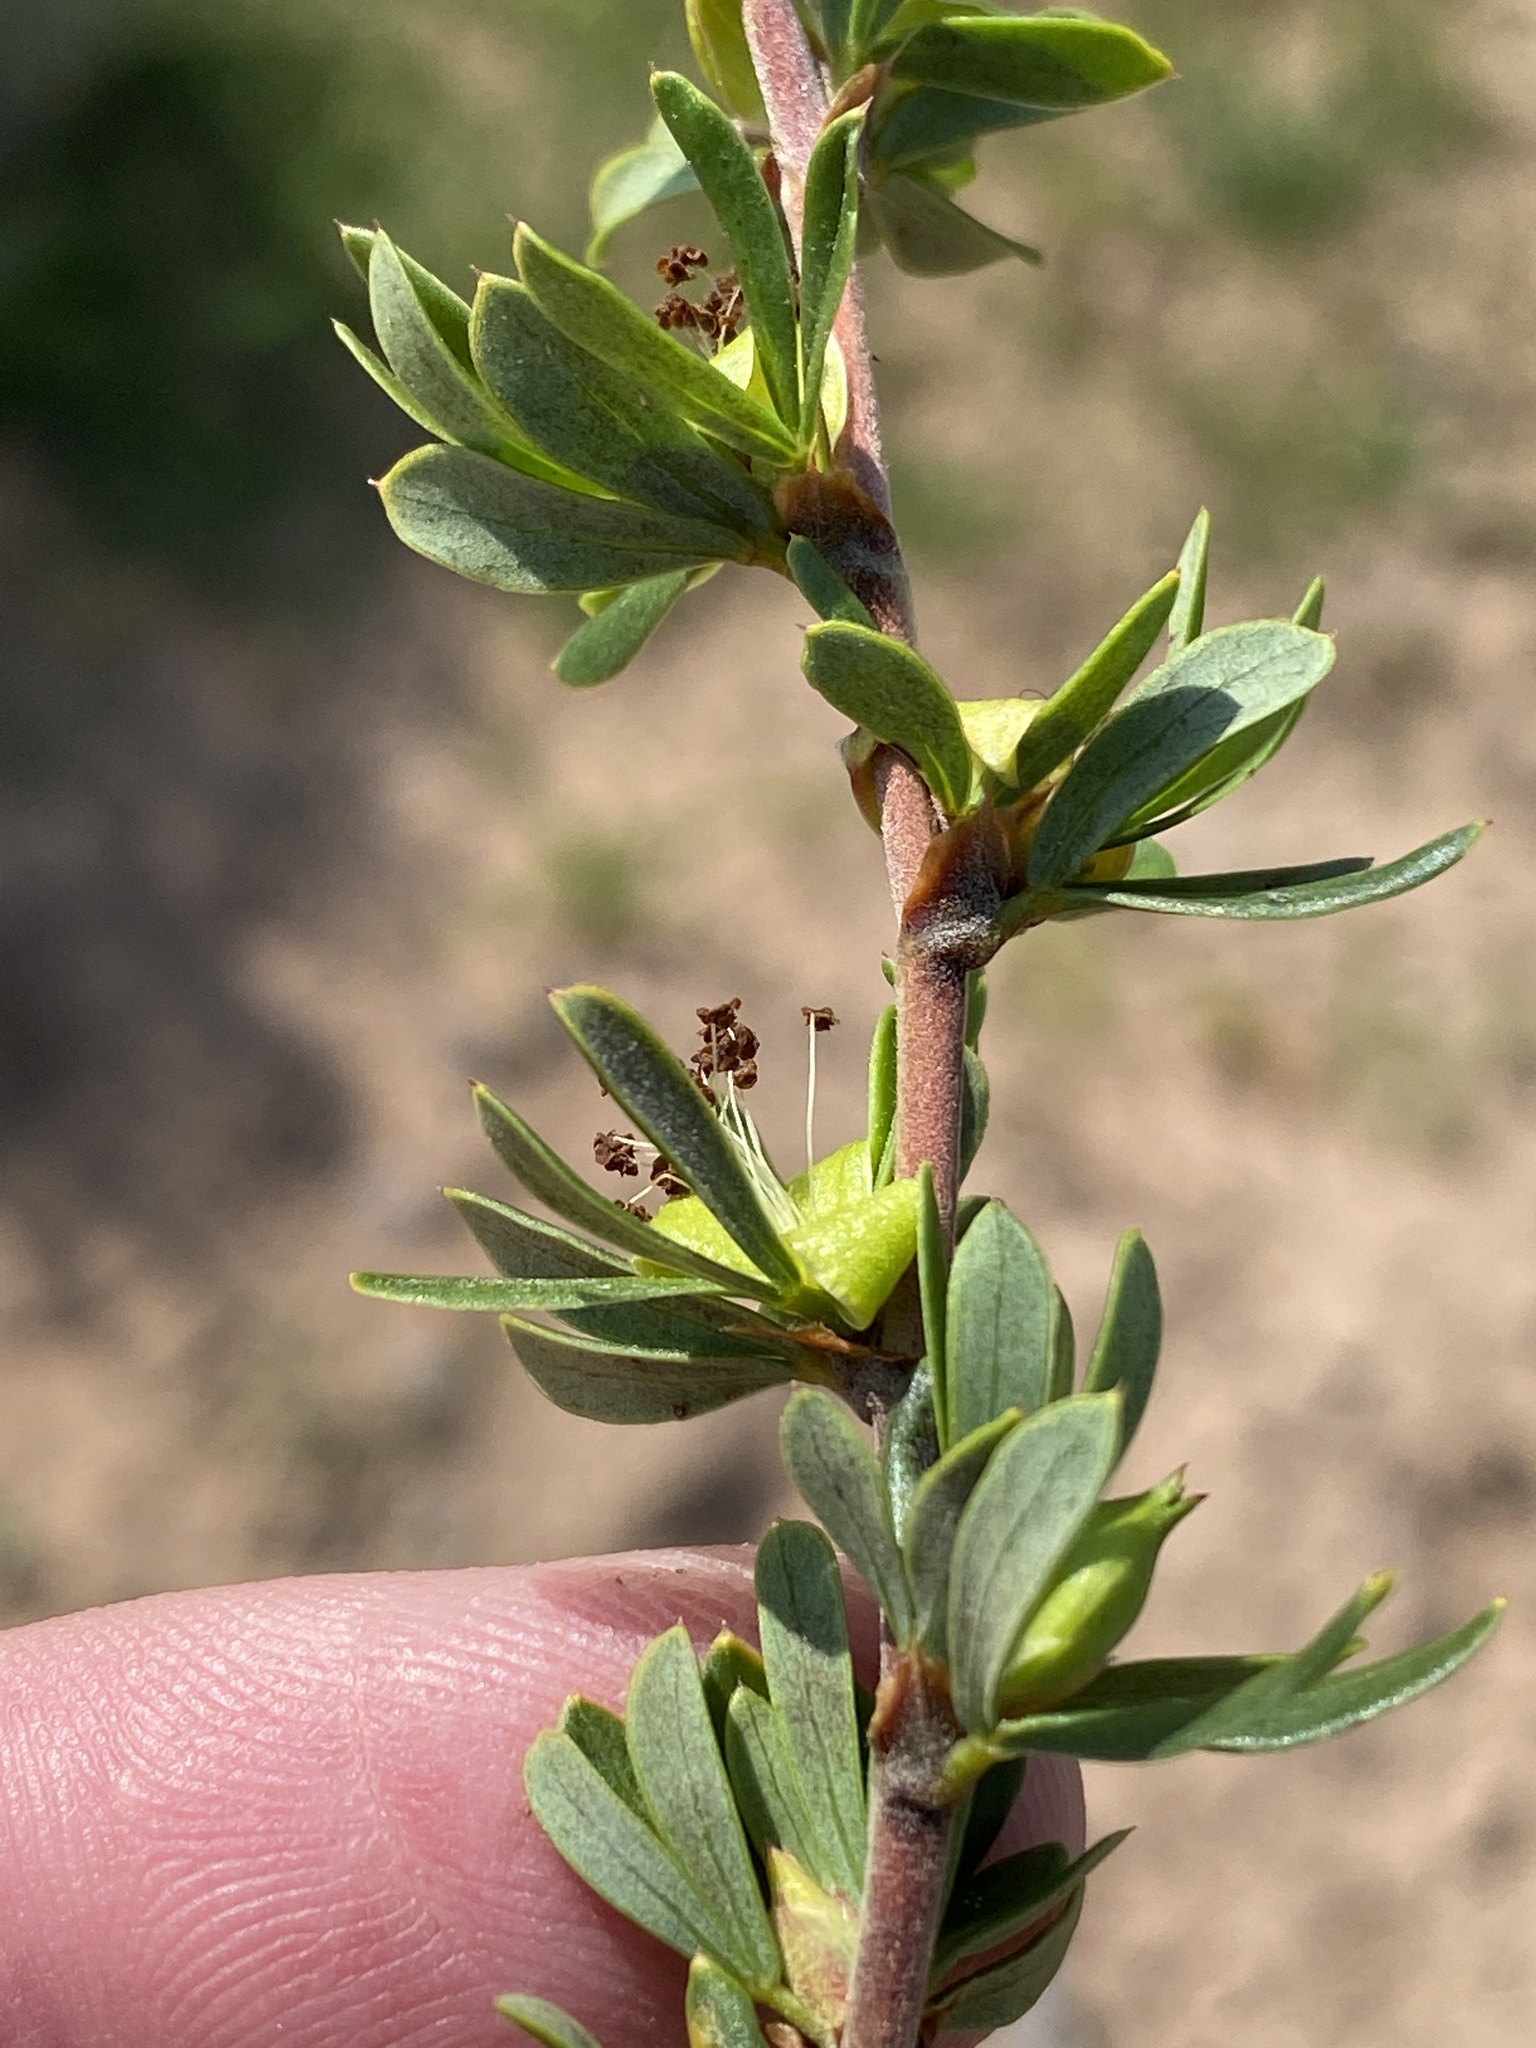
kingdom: Plantae
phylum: Tracheophyta
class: Magnoliopsida
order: Rosales
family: Rosaceae
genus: Cliffortia
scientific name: Cliffortia drepanoides
